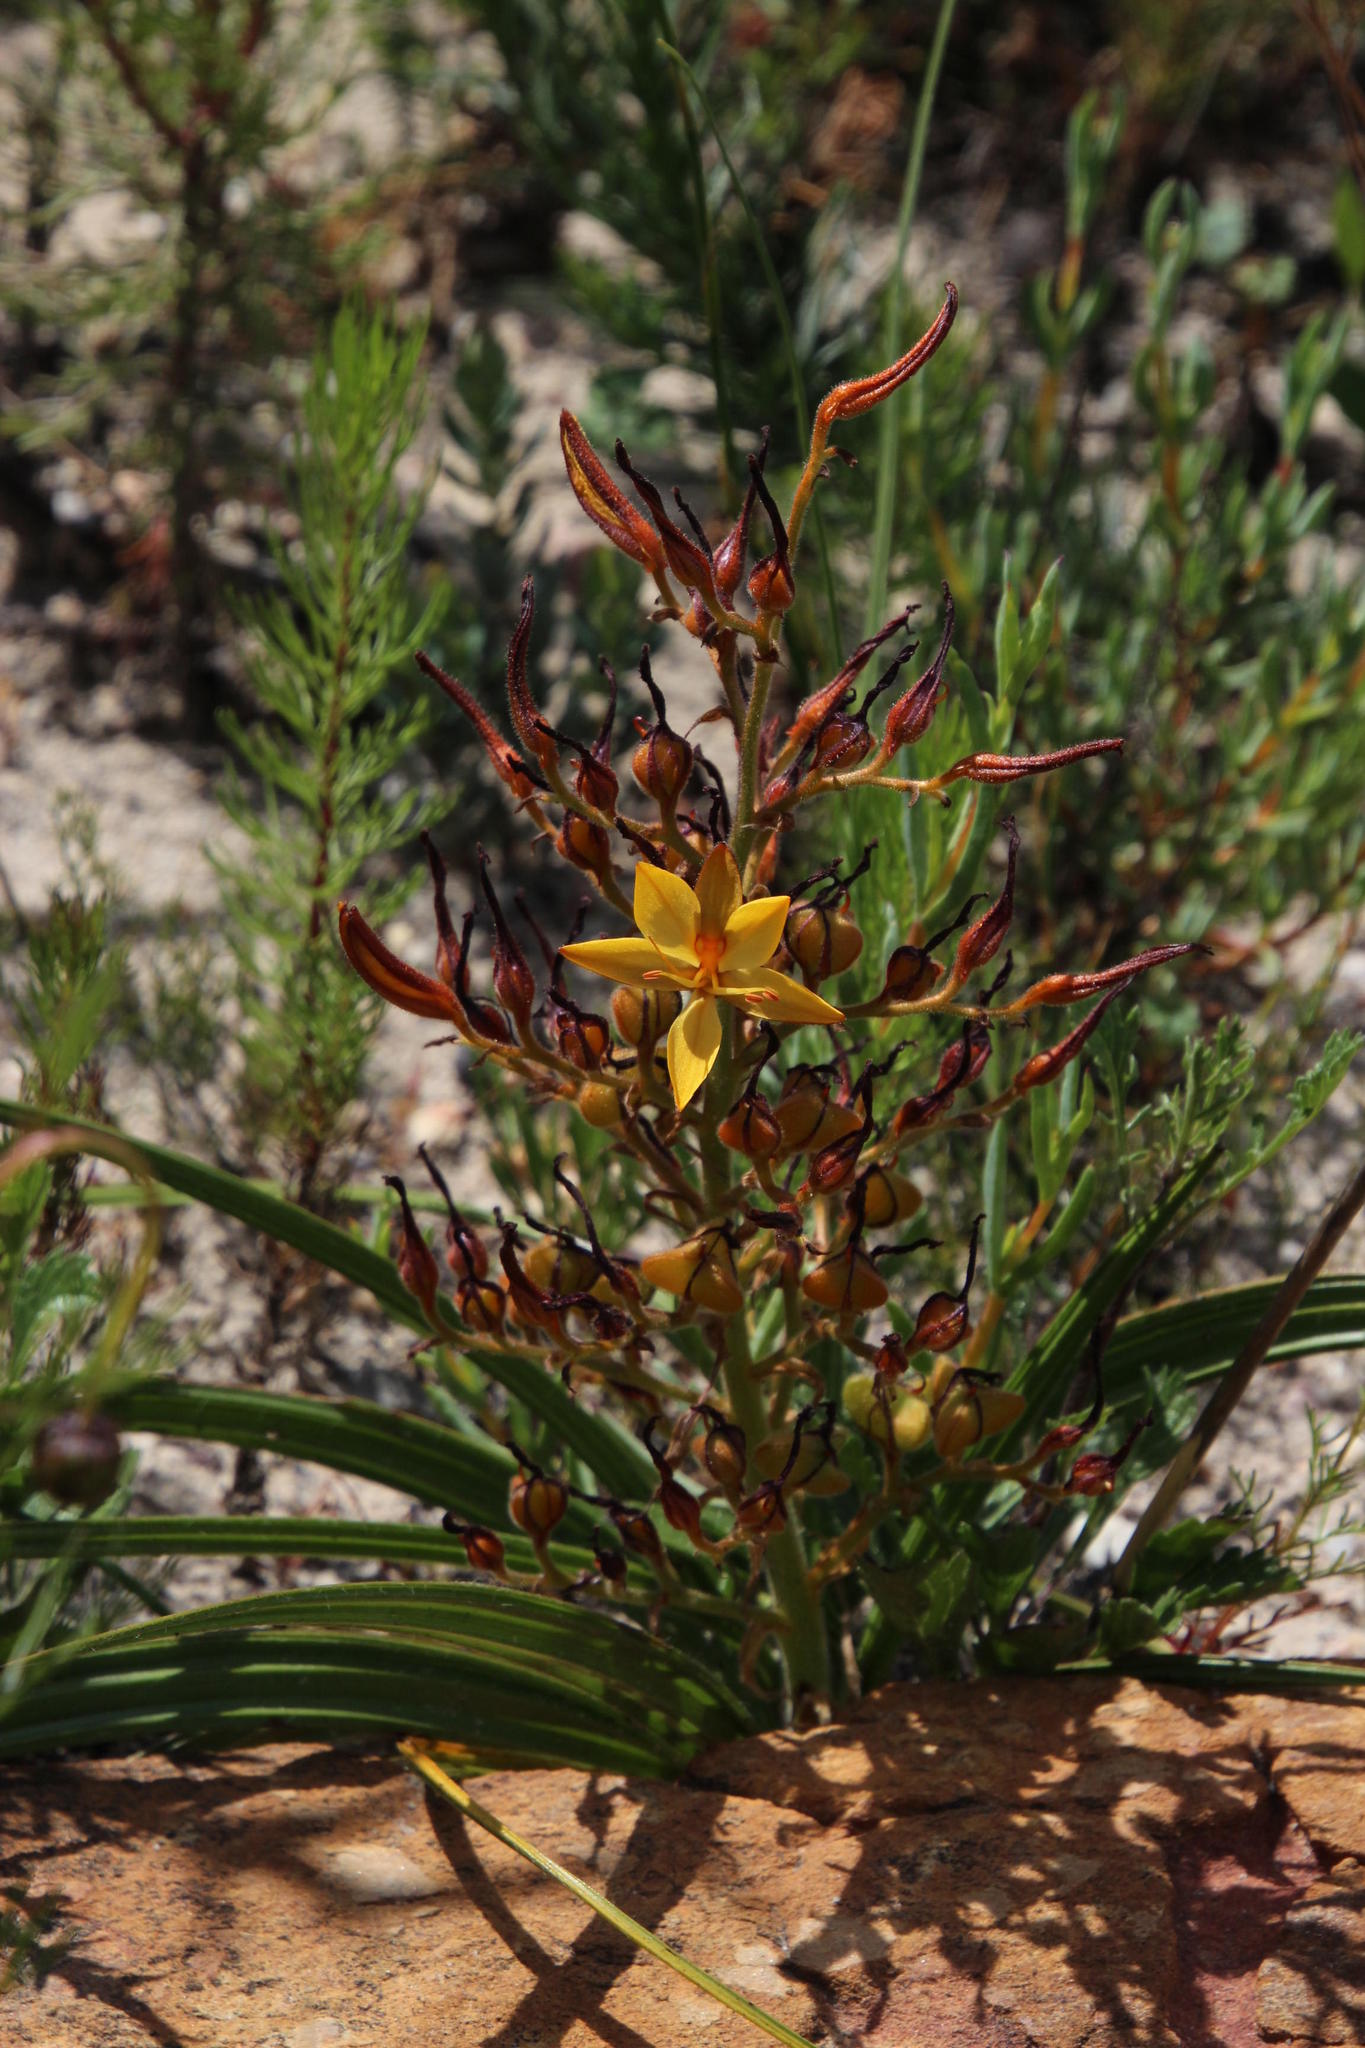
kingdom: Plantae
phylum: Tracheophyta
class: Liliopsida
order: Commelinales
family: Haemodoraceae
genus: Wachendorfia
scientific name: Wachendorfia paniculata
